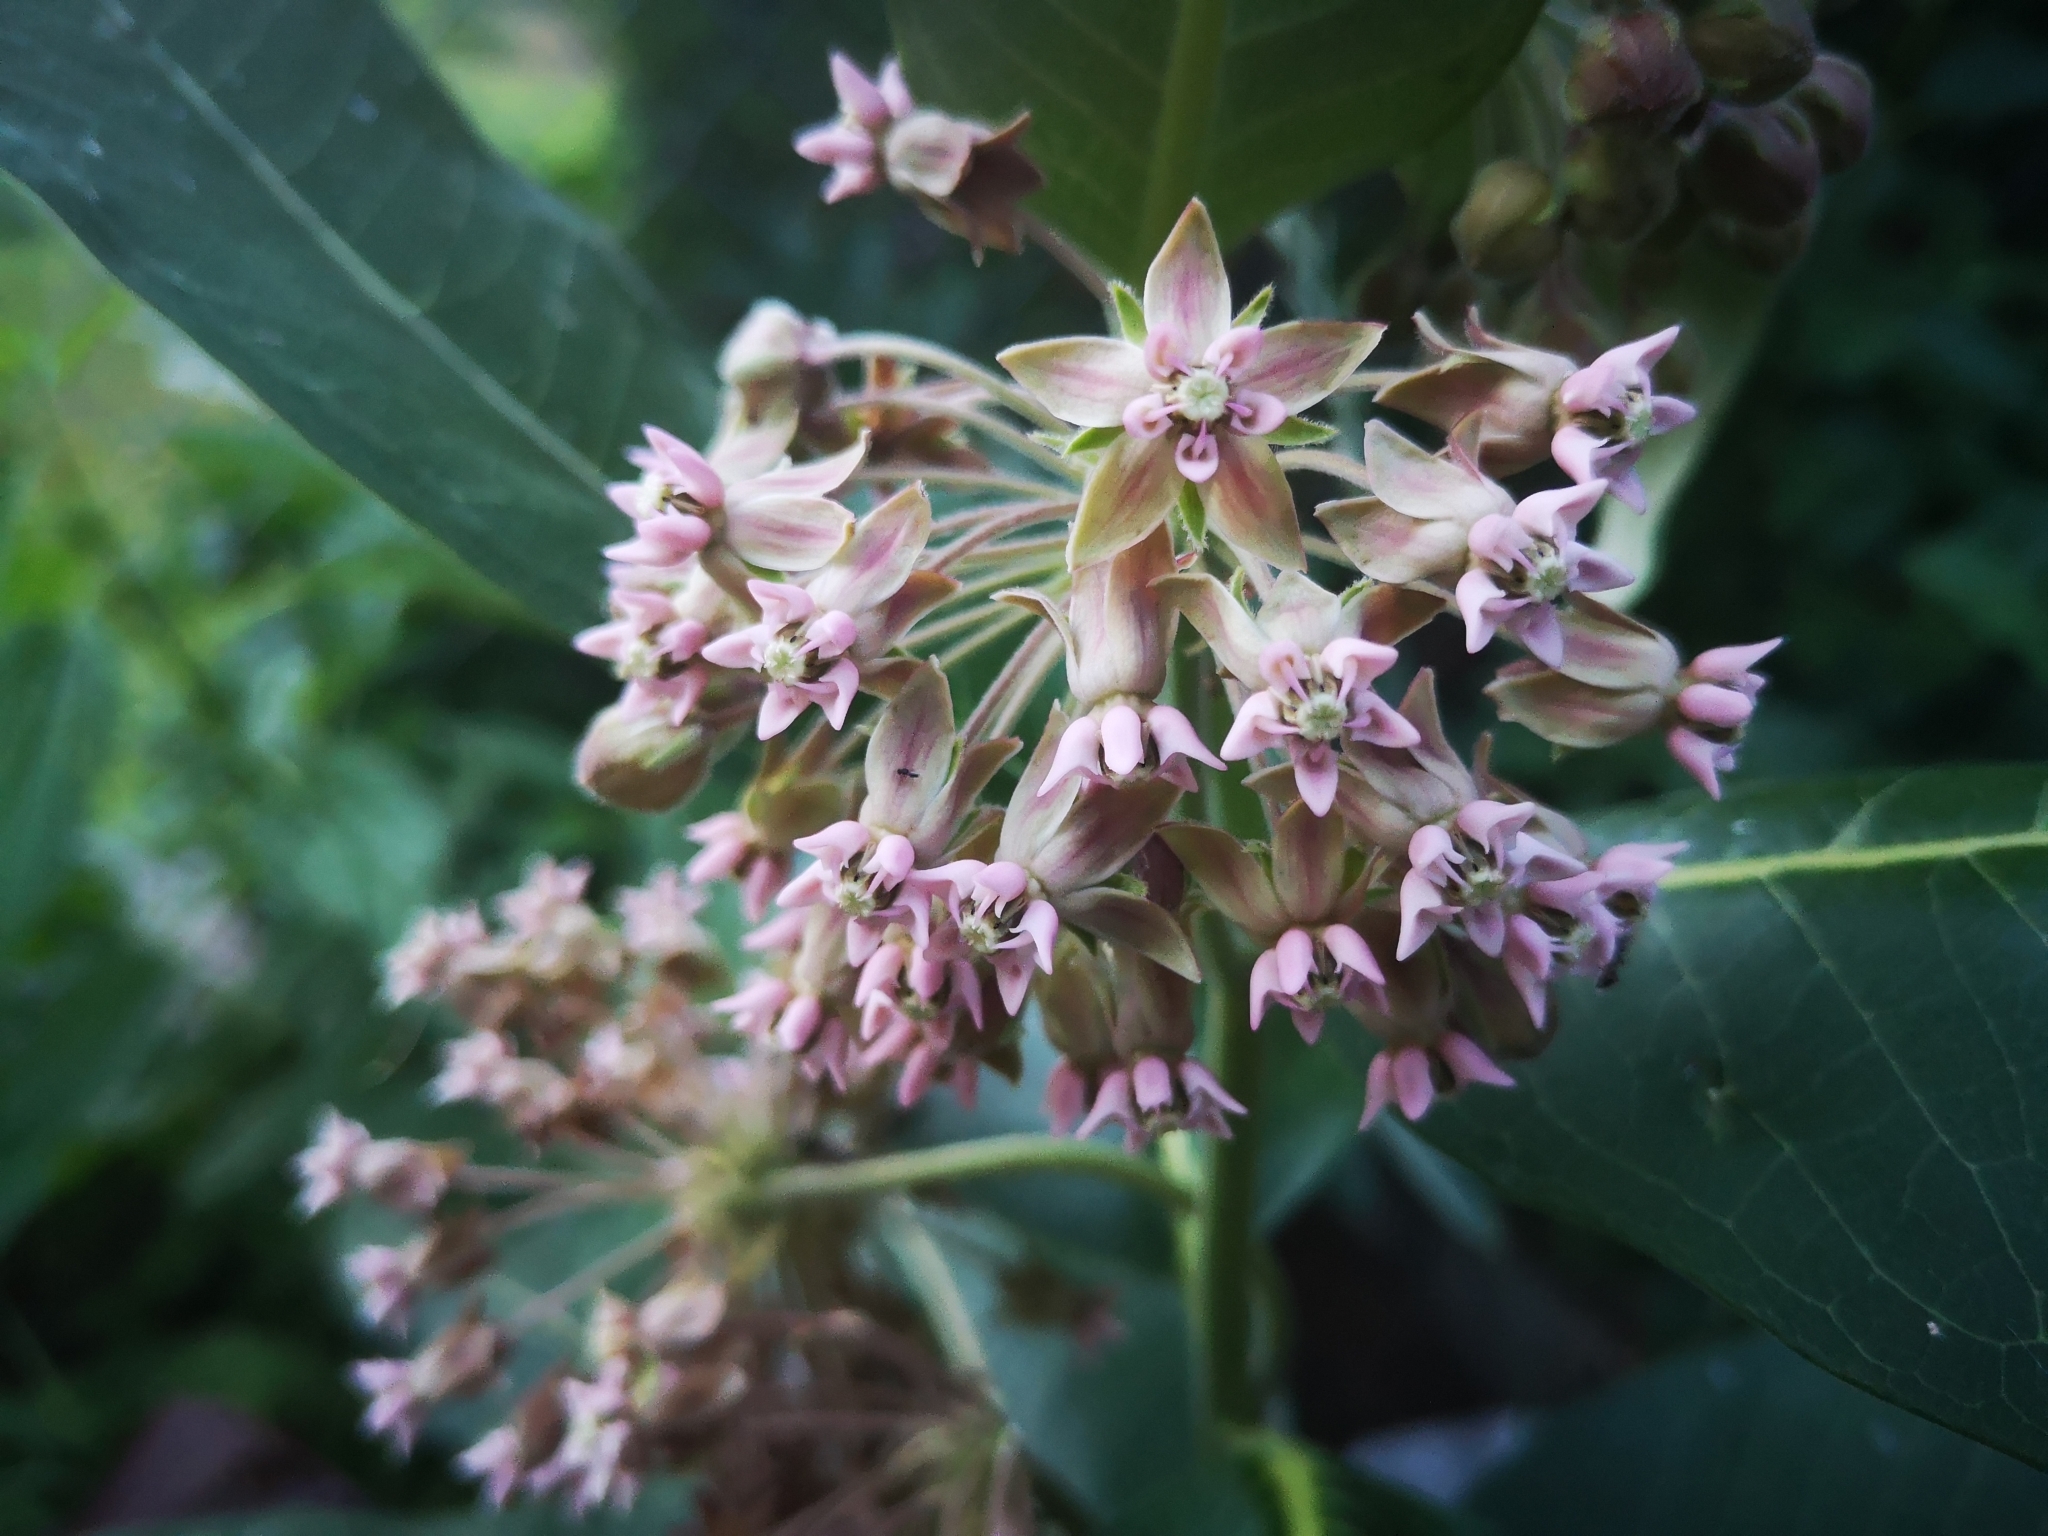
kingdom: Plantae
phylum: Tracheophyta
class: Magnoliopsida
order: Gentianales
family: Apocynaceae
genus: Asclepias
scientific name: Asclepias syriaca
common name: Common milkweed
